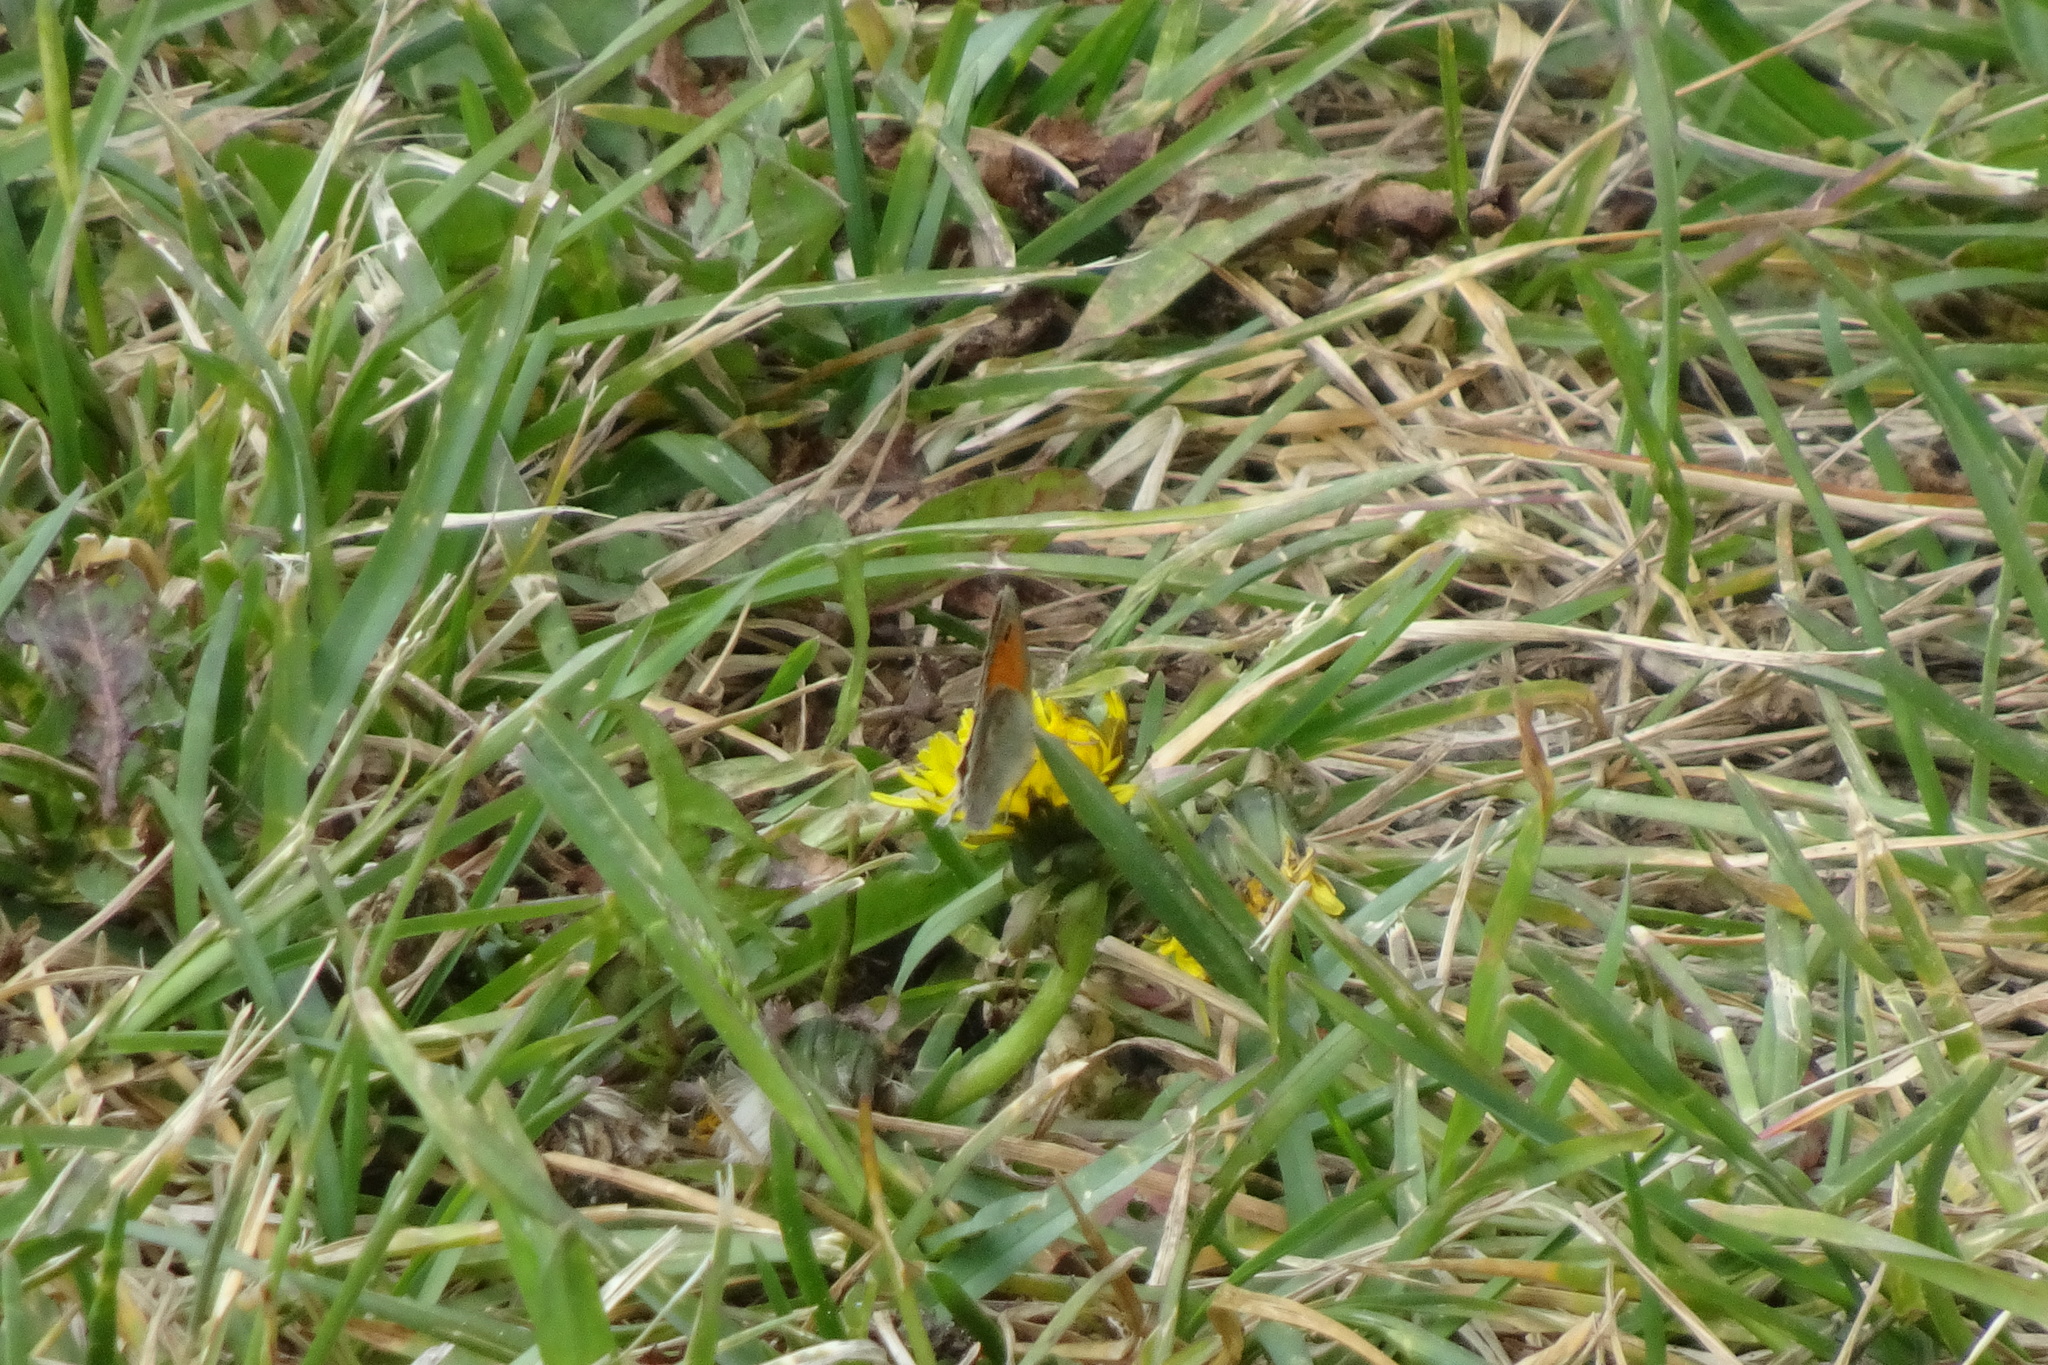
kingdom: Animalia
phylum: Arthropoda
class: Insecta
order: Lepidoptera
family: Nymphalidae
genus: Coenonympha
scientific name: Coenonympha pamphilus
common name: Small heath
